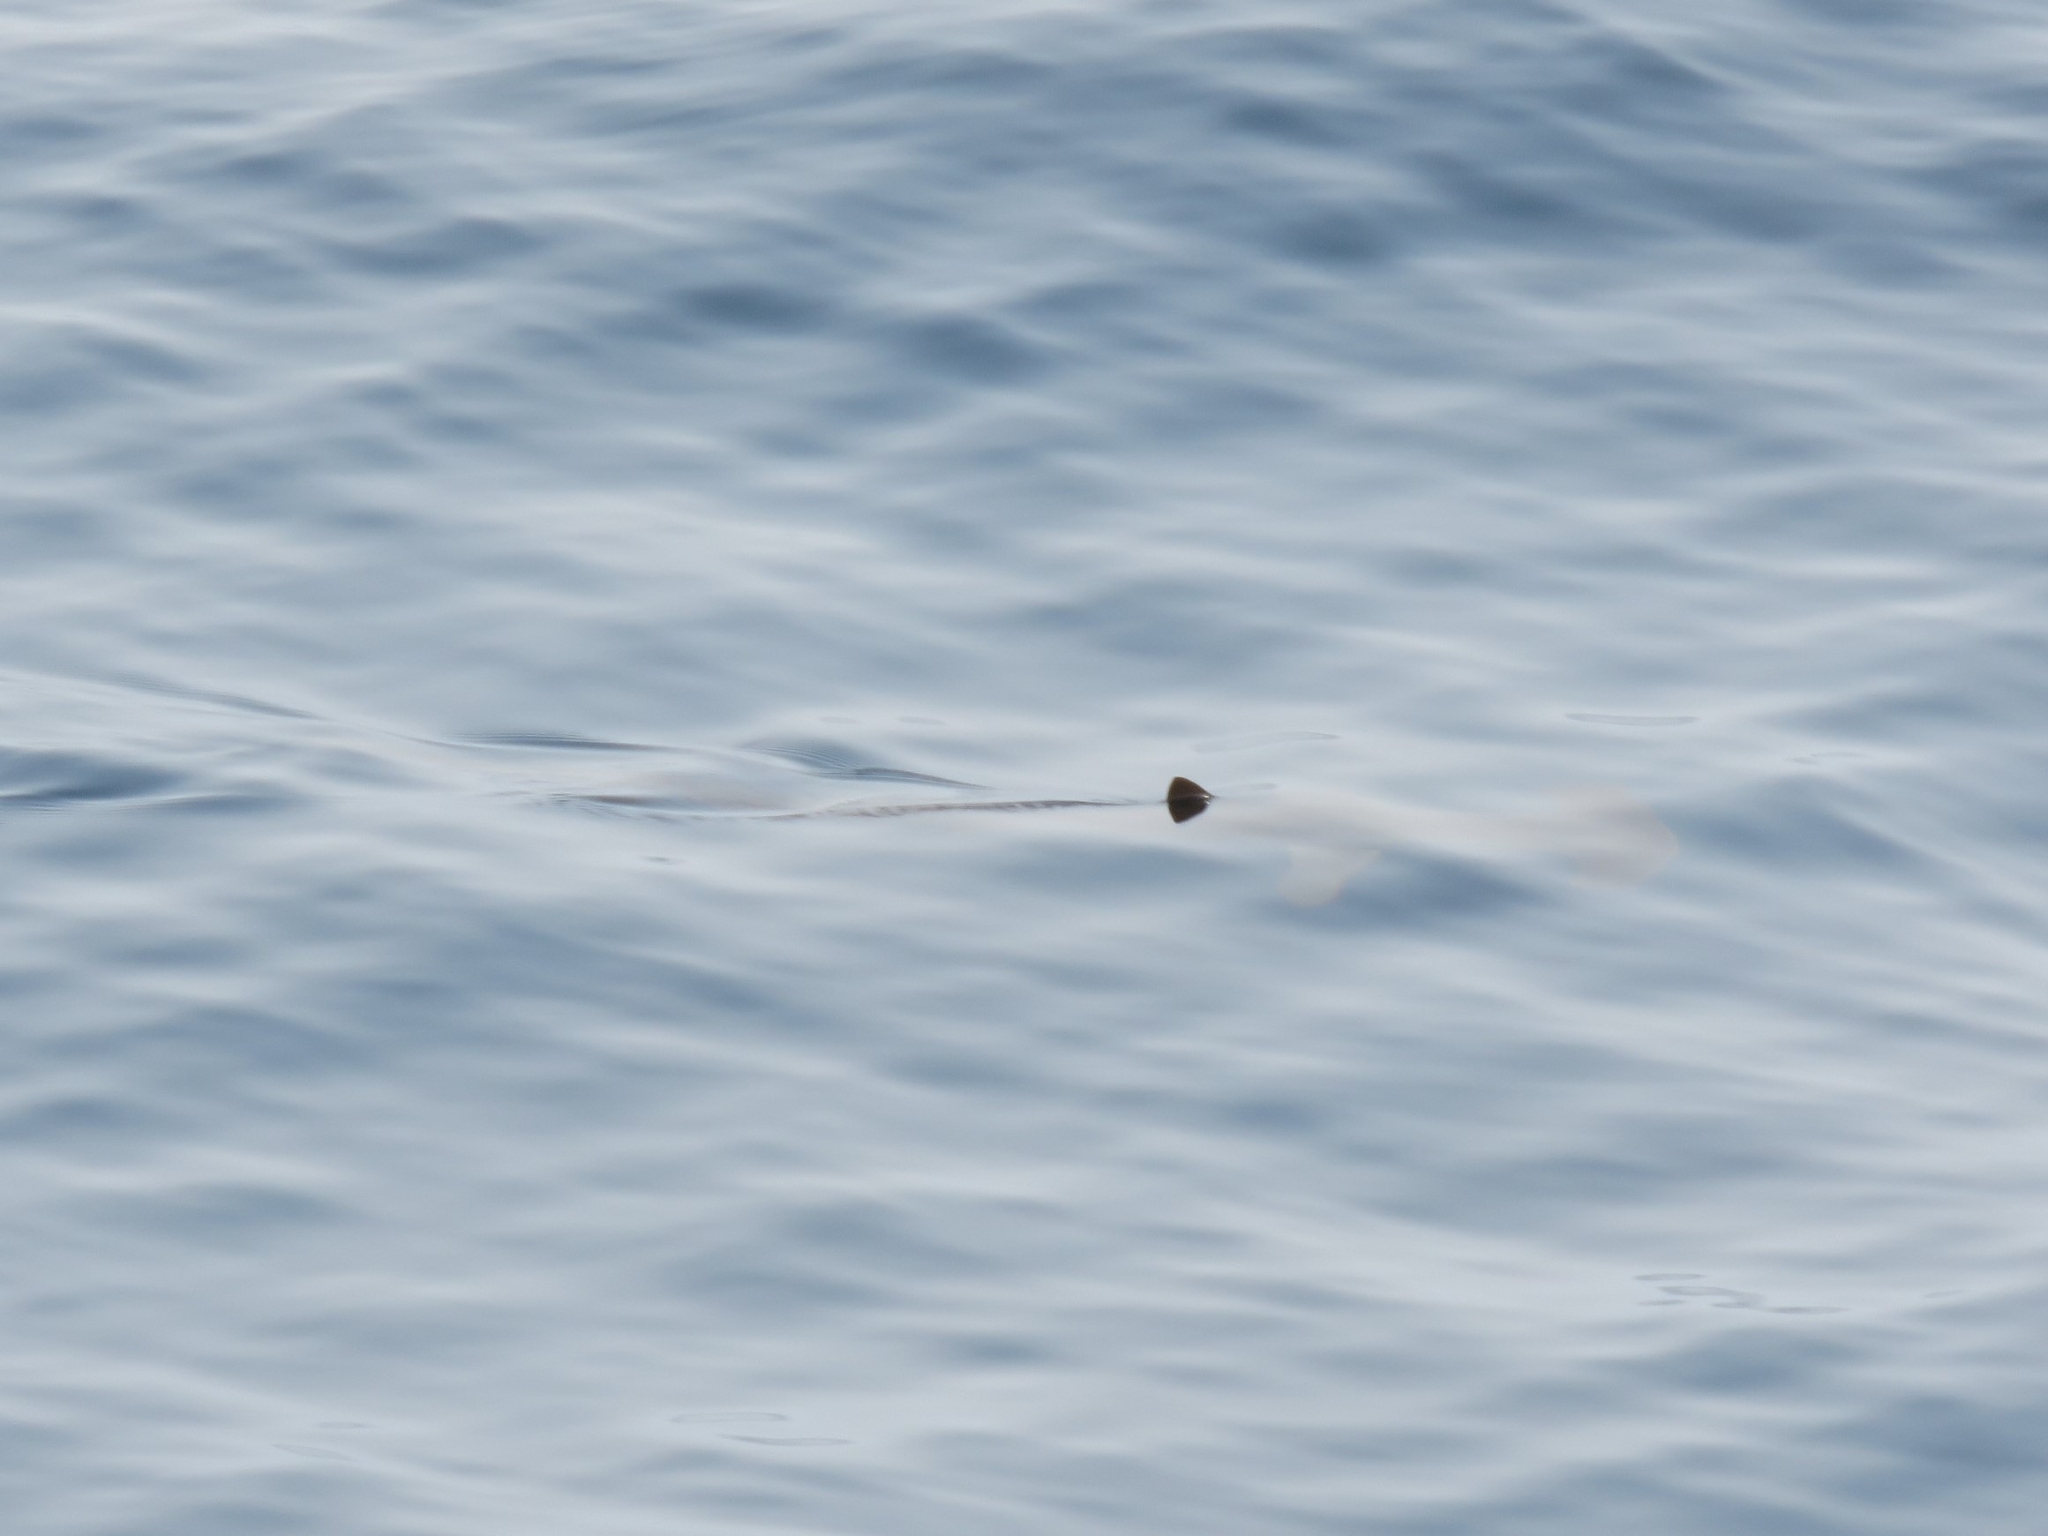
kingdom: Animalia
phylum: Chordata
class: Elasmobranchii
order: Carcharhiniformes
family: Sphyrnidae
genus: Sphyrna
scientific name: Sphyrna zygaena
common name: Smooth hammerhead
